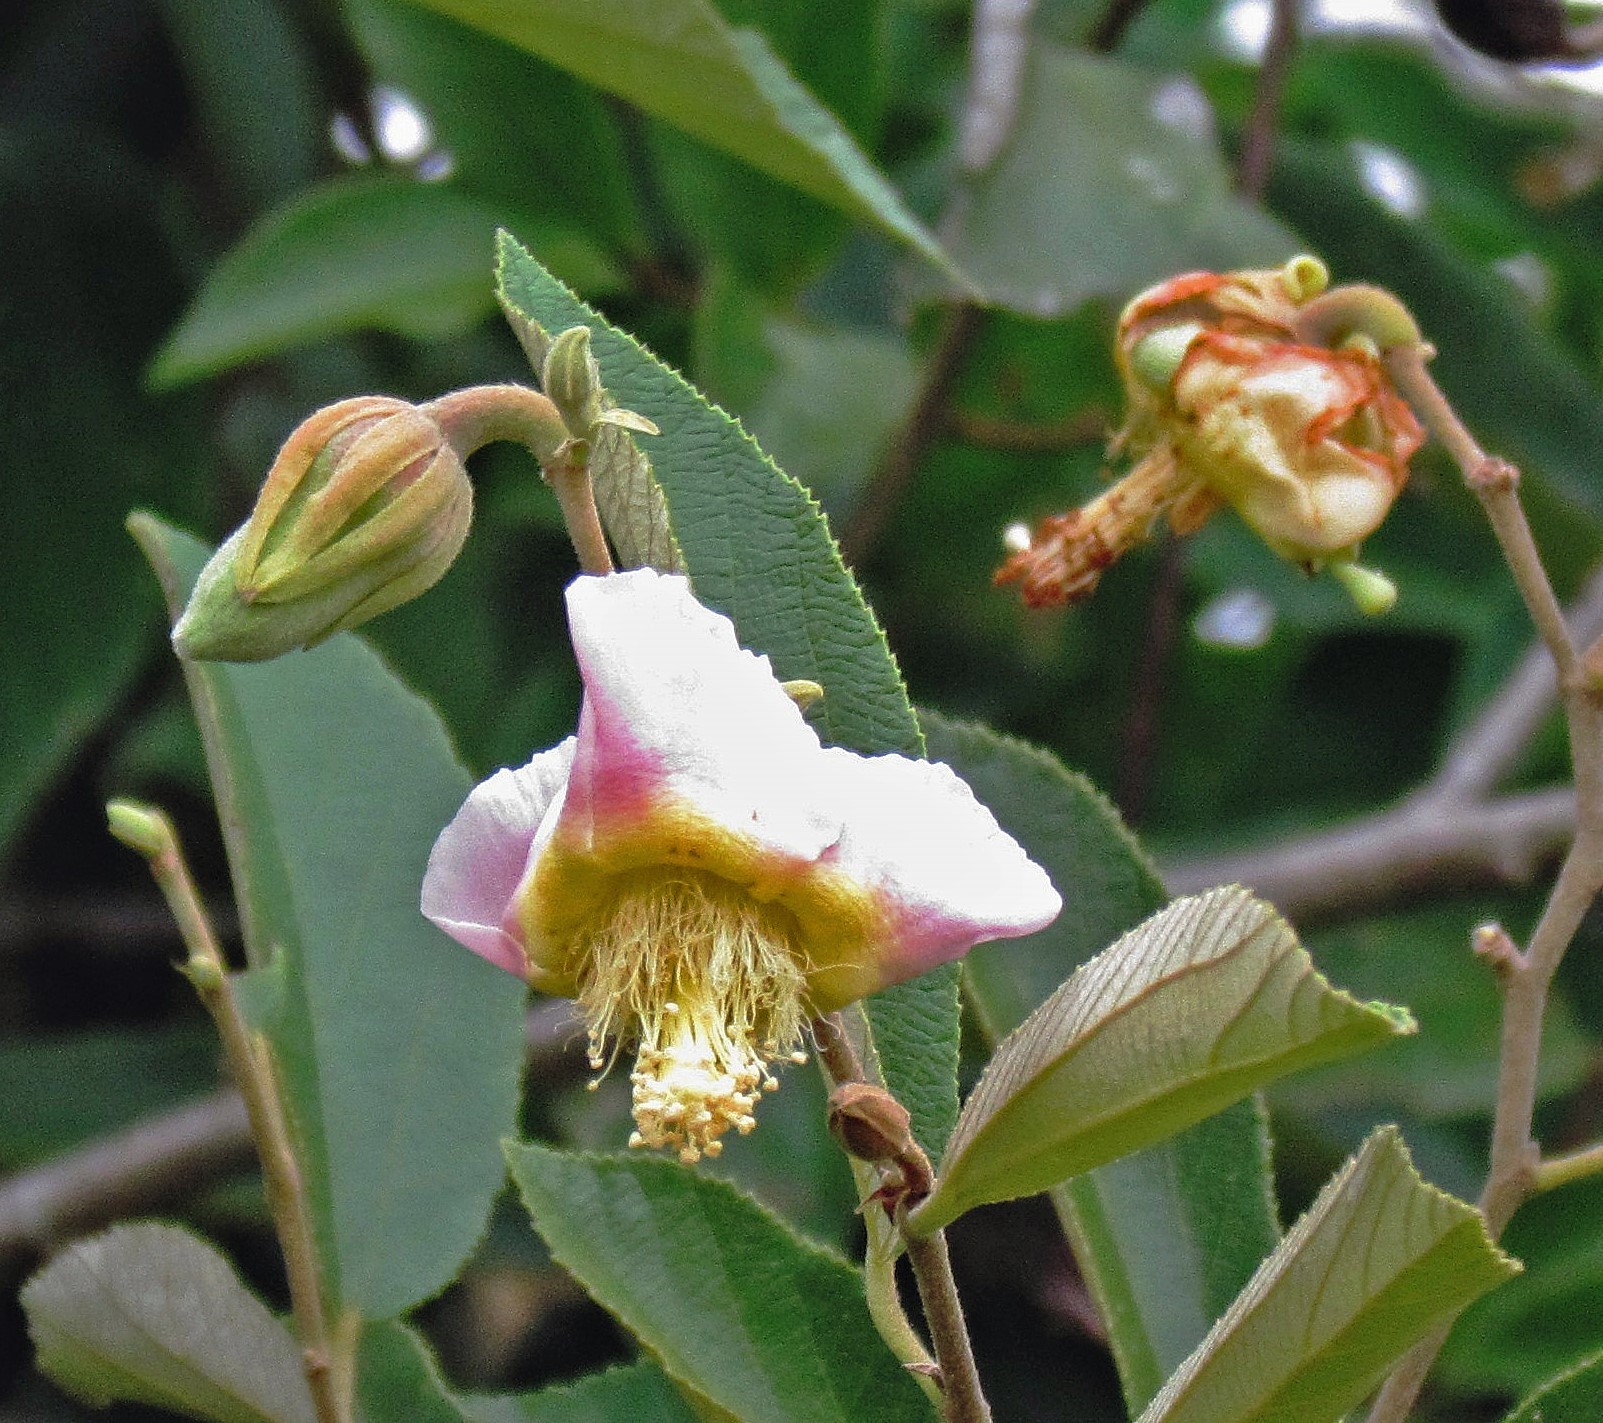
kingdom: Plantae
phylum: Tracheophyta
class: Magnoliopsida
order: Malvales
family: Malvaceae
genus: Luehea
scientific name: Luehea divaricata
